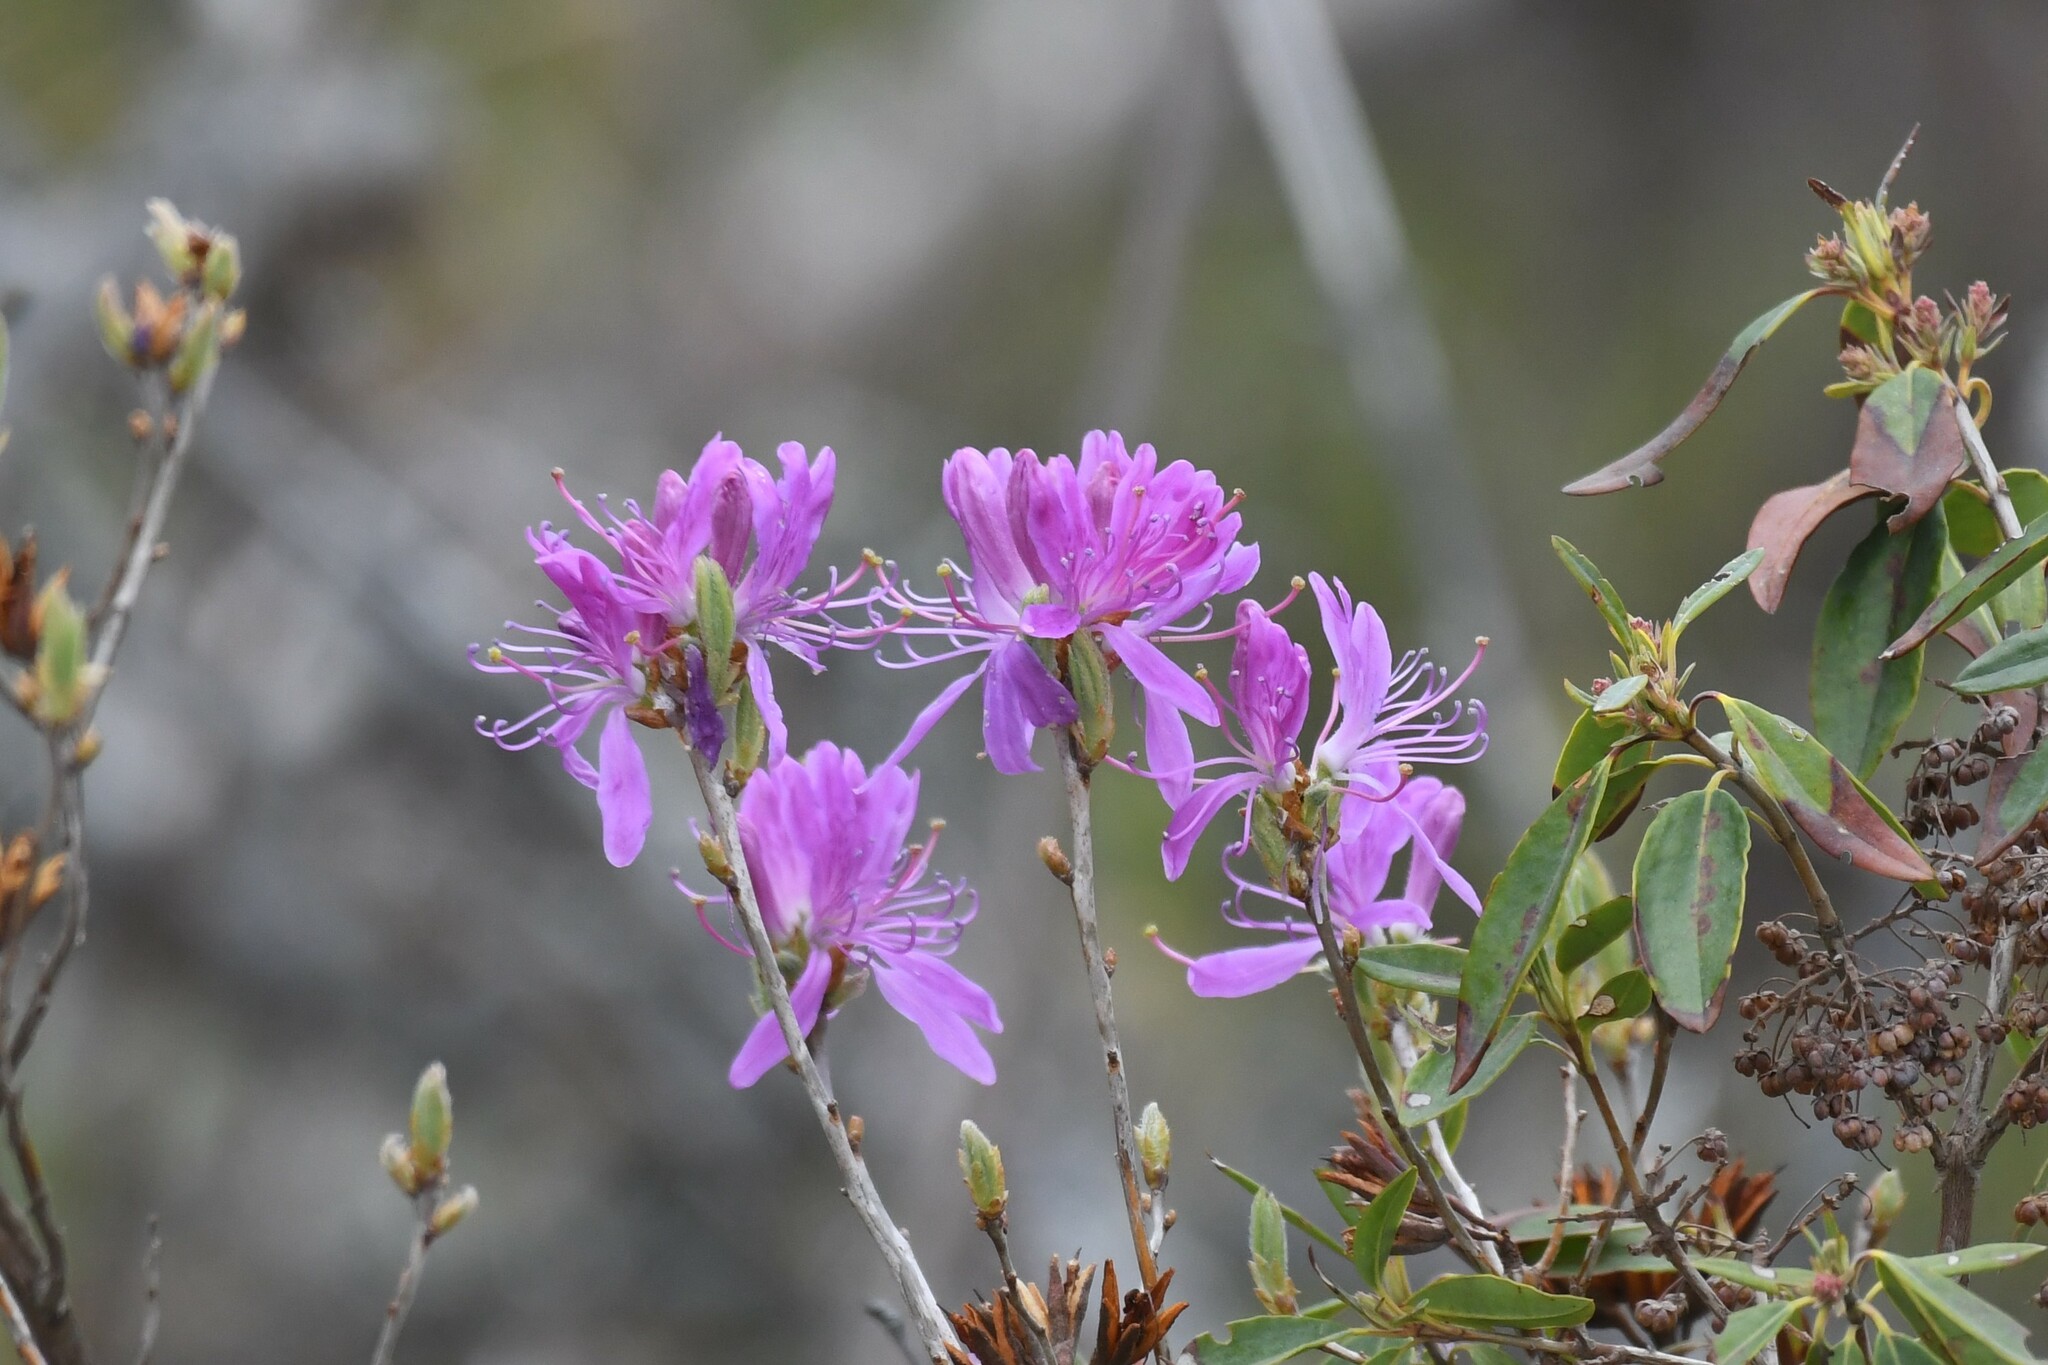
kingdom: Plantae
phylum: Tracheophyta
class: Magnoliopsida
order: Ericales
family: Ericaceae
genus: Rhododendron
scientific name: Rhododendron canadense
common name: Rhodora
